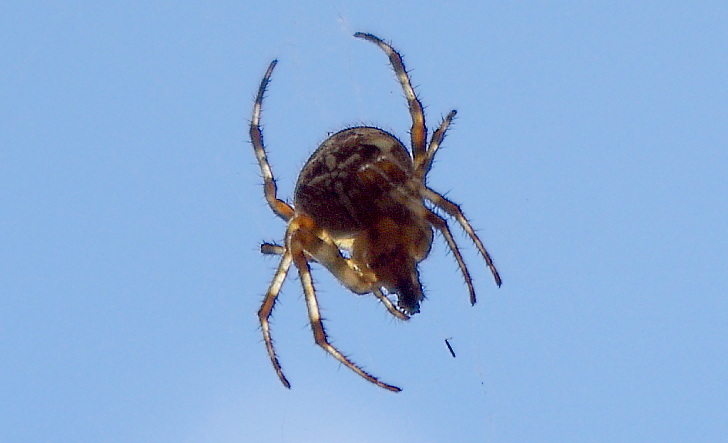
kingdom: Animalia
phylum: Arthropoda
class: Arachnida
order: Araneae
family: Araneidae
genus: Araneus
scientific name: Araneus diadematus
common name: Cross orbweaver
